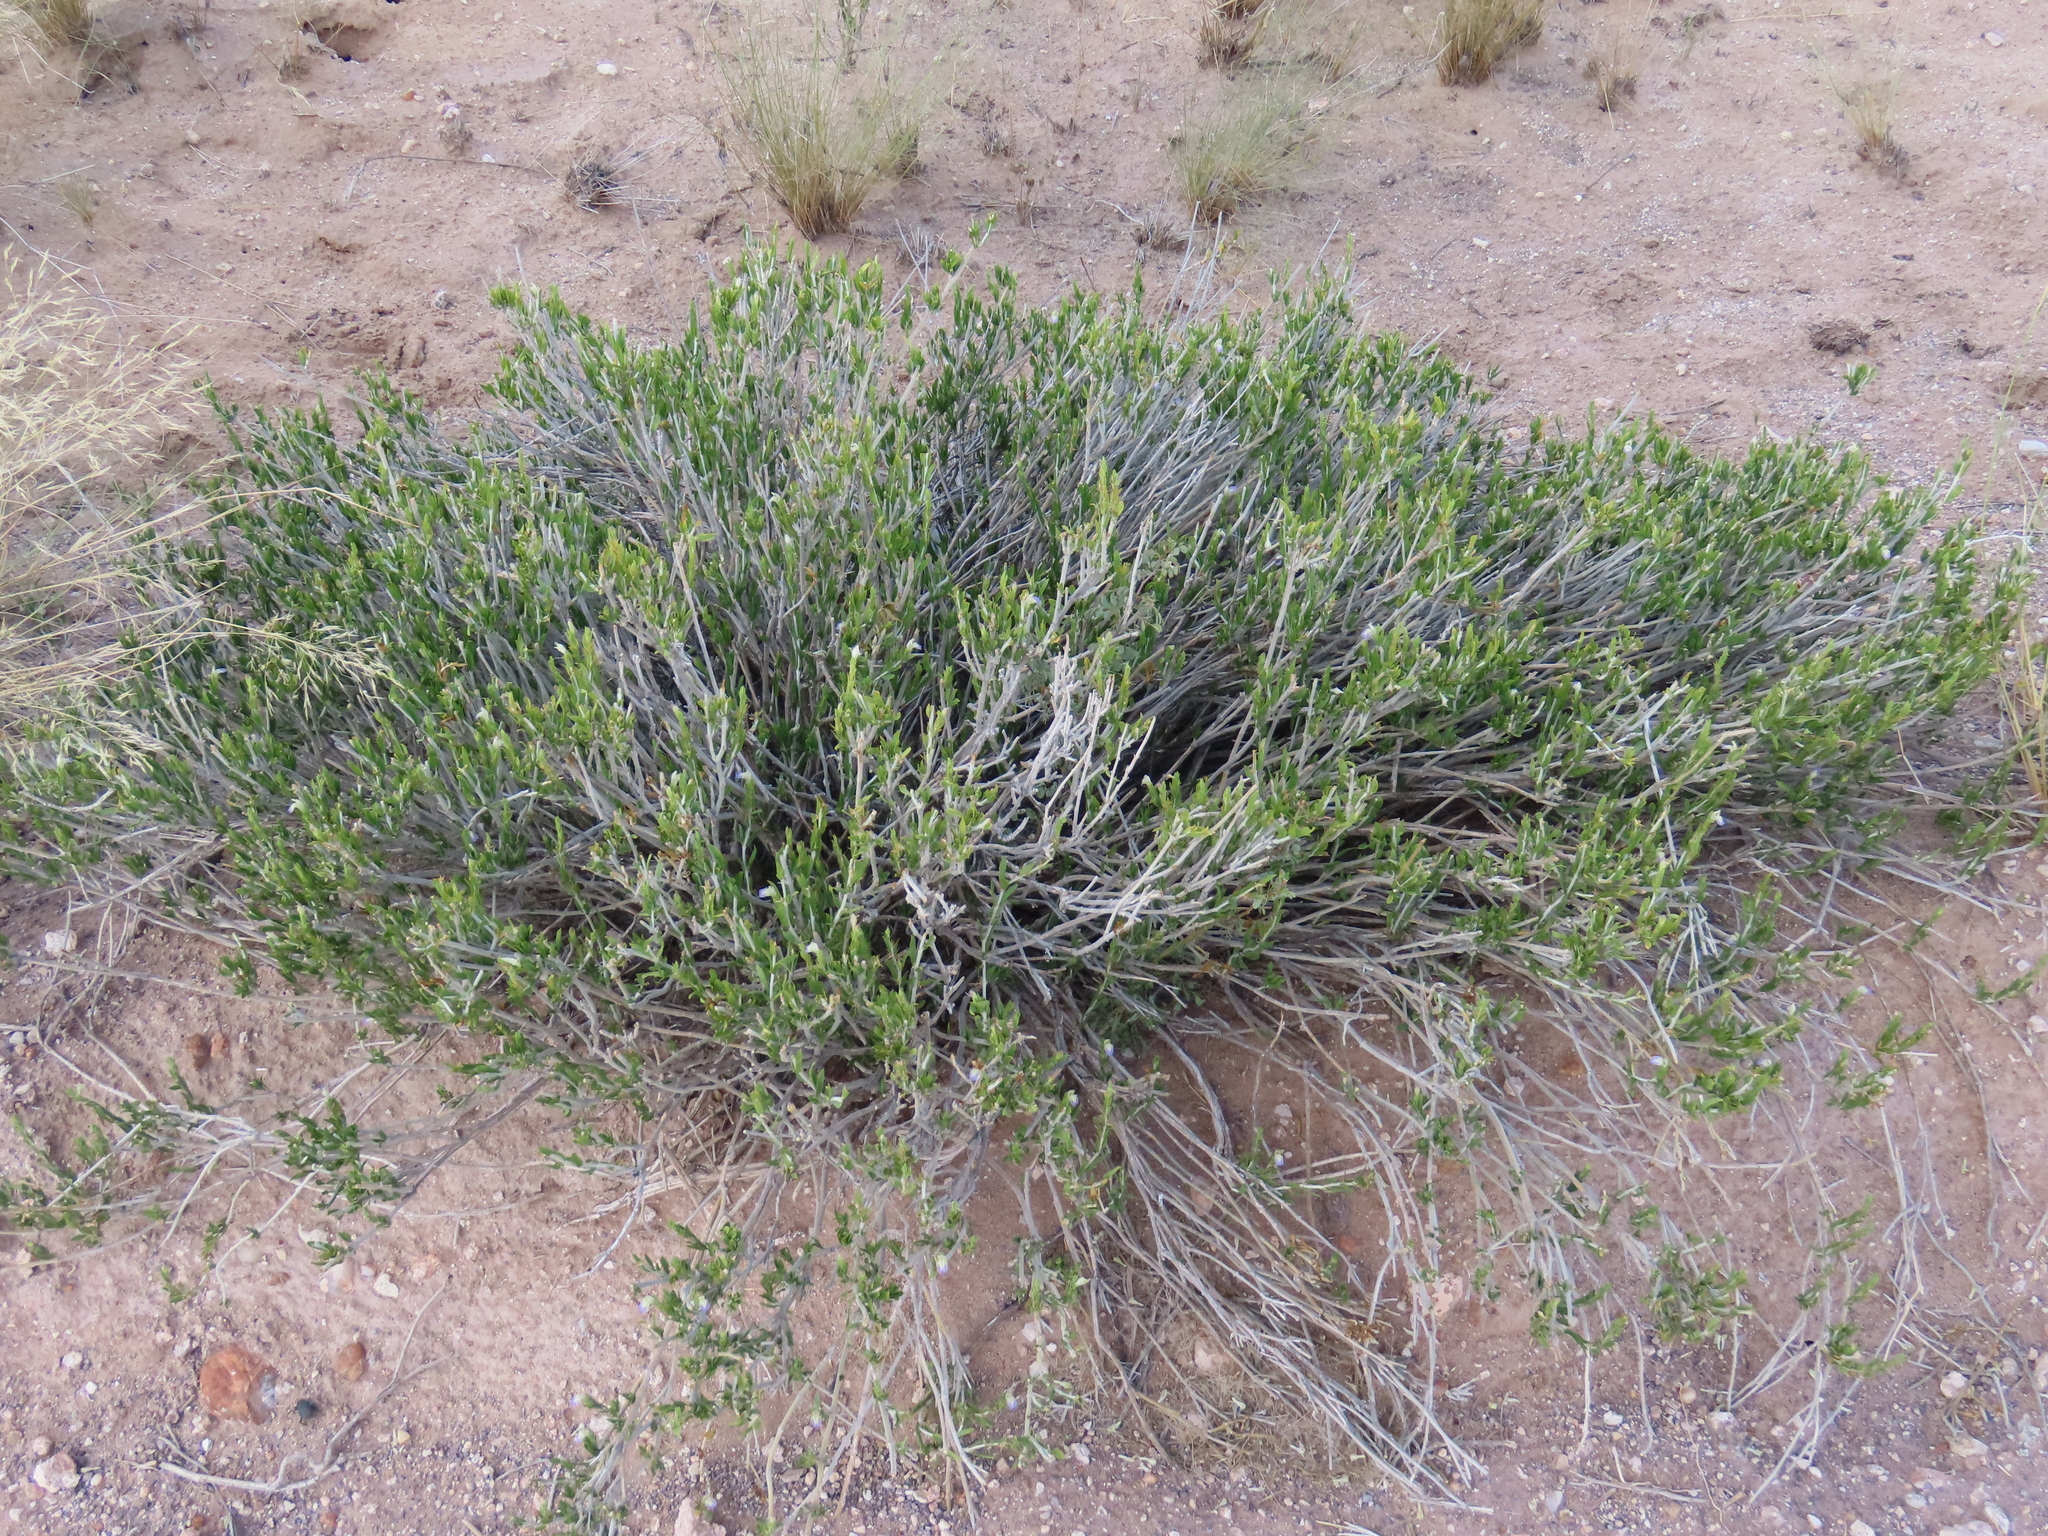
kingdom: Plantae
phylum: Tracheophyta
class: Magnoliopsida
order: Lamiales
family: Acanthaceae
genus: Pogonospermum
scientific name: Pogonospermum
